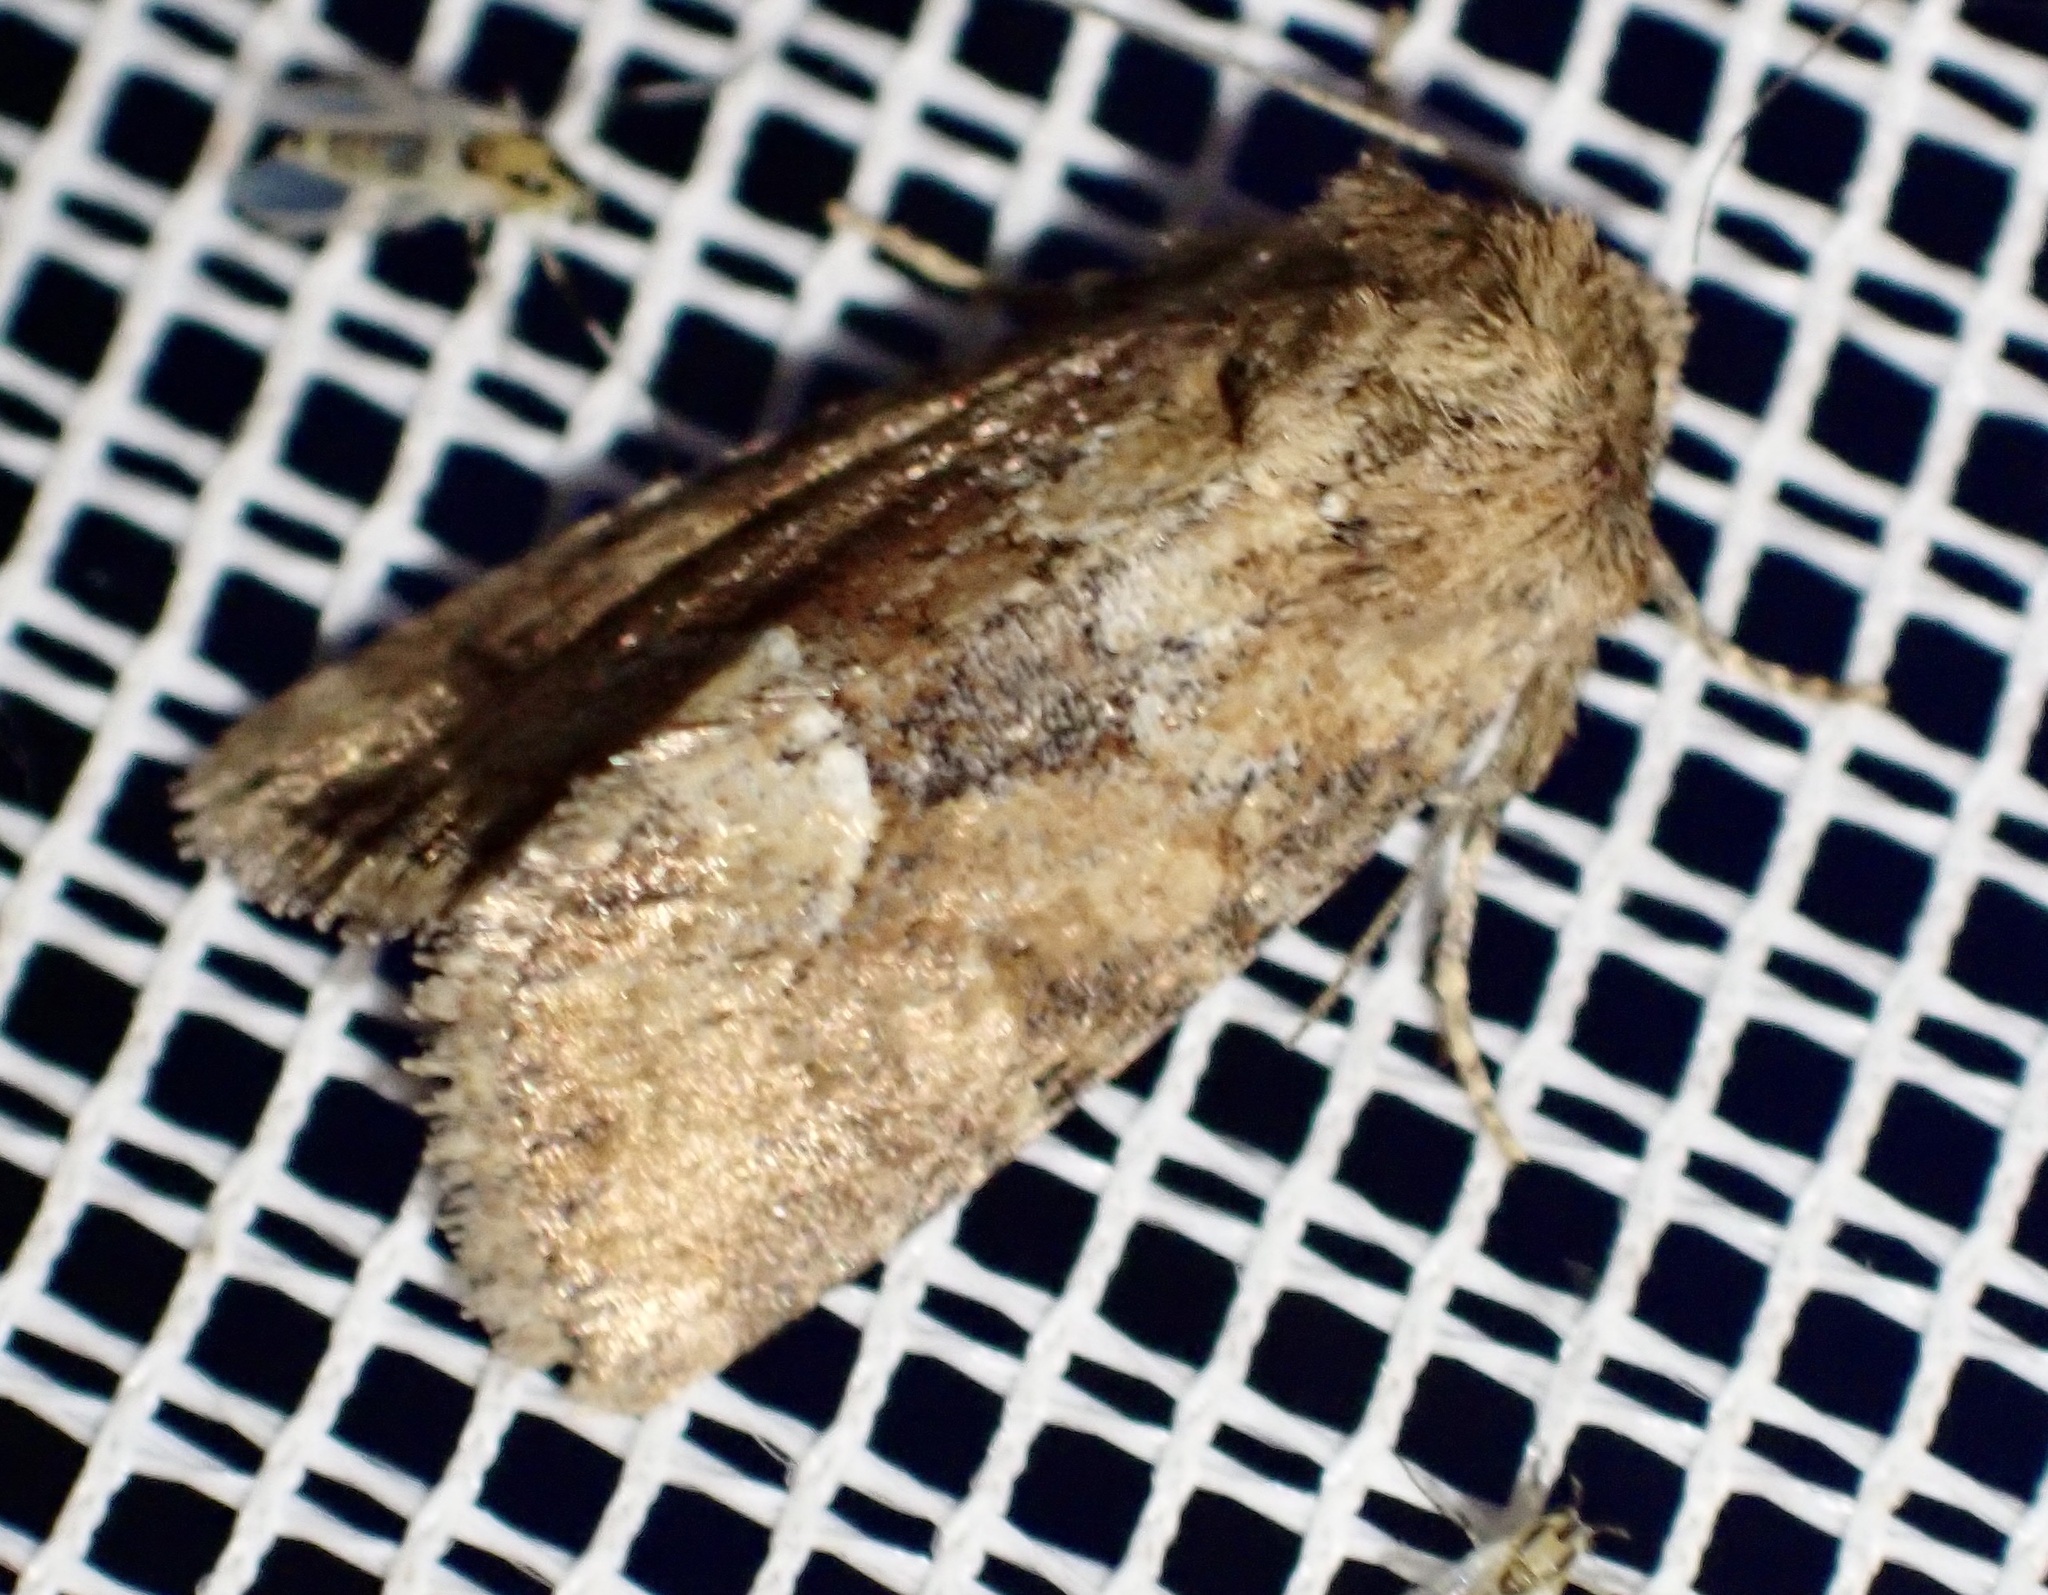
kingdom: Animalia
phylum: Arthropoda
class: Insecta
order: Lepidoptera
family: Noctuidae
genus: Oligia
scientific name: Oligia fasciuncula
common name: Middle-barred minor
